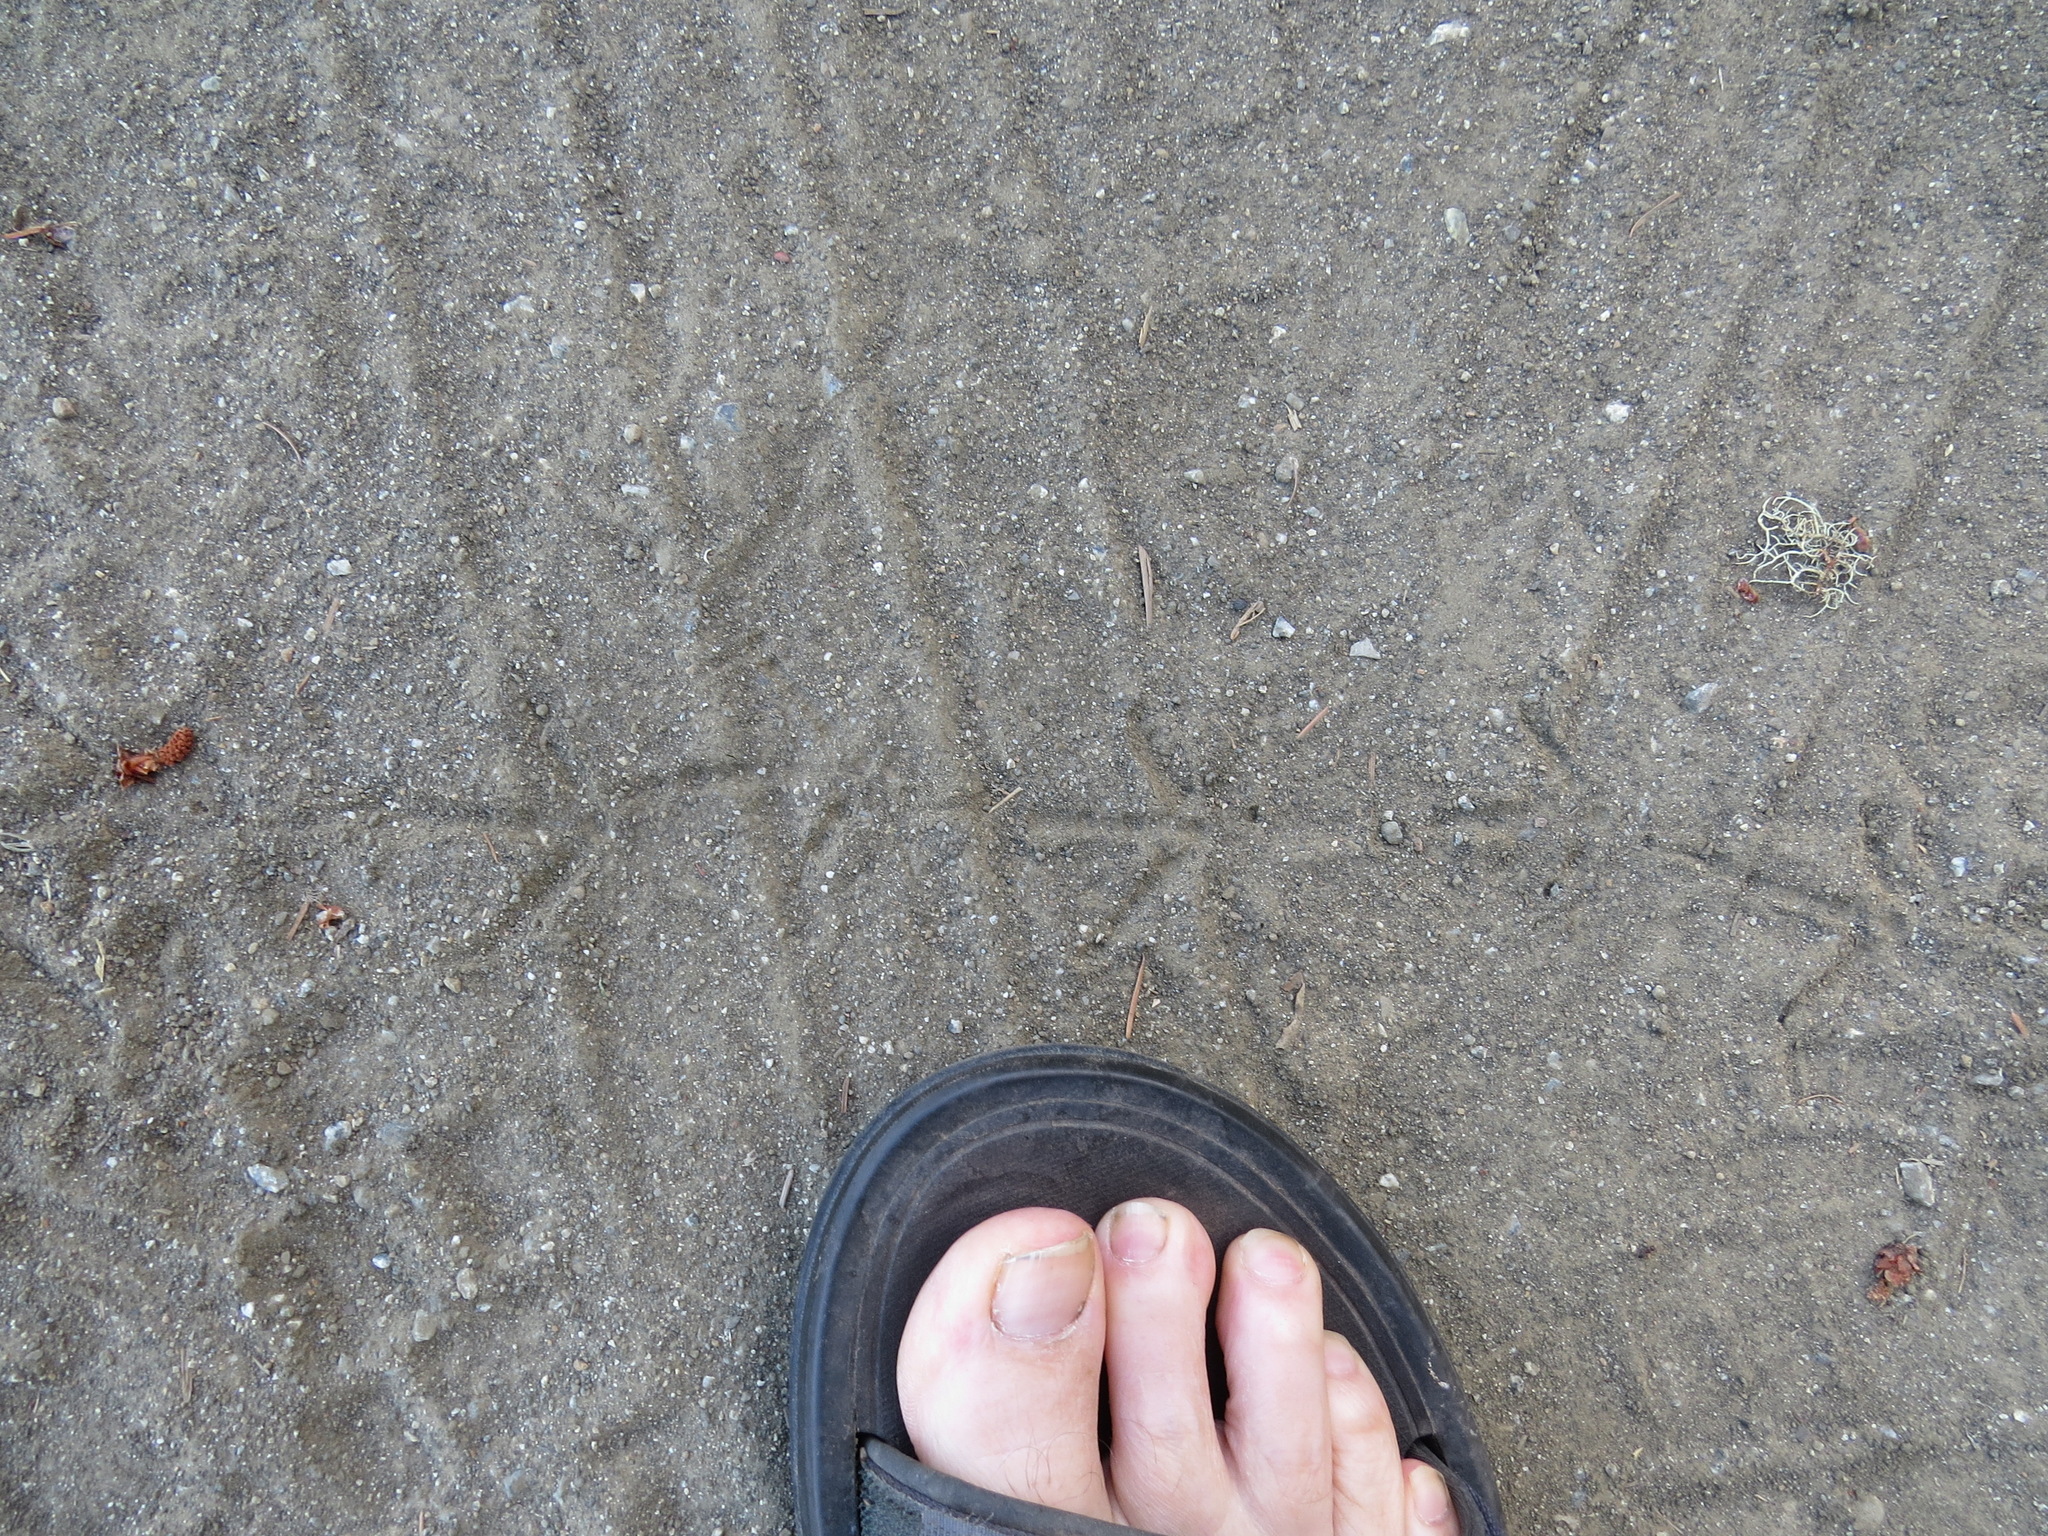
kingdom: Animalia
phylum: Chordata
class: Aves
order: Galliformes
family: Odontophoridae
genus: Callipepla
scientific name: Callipepla californica
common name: California quail
